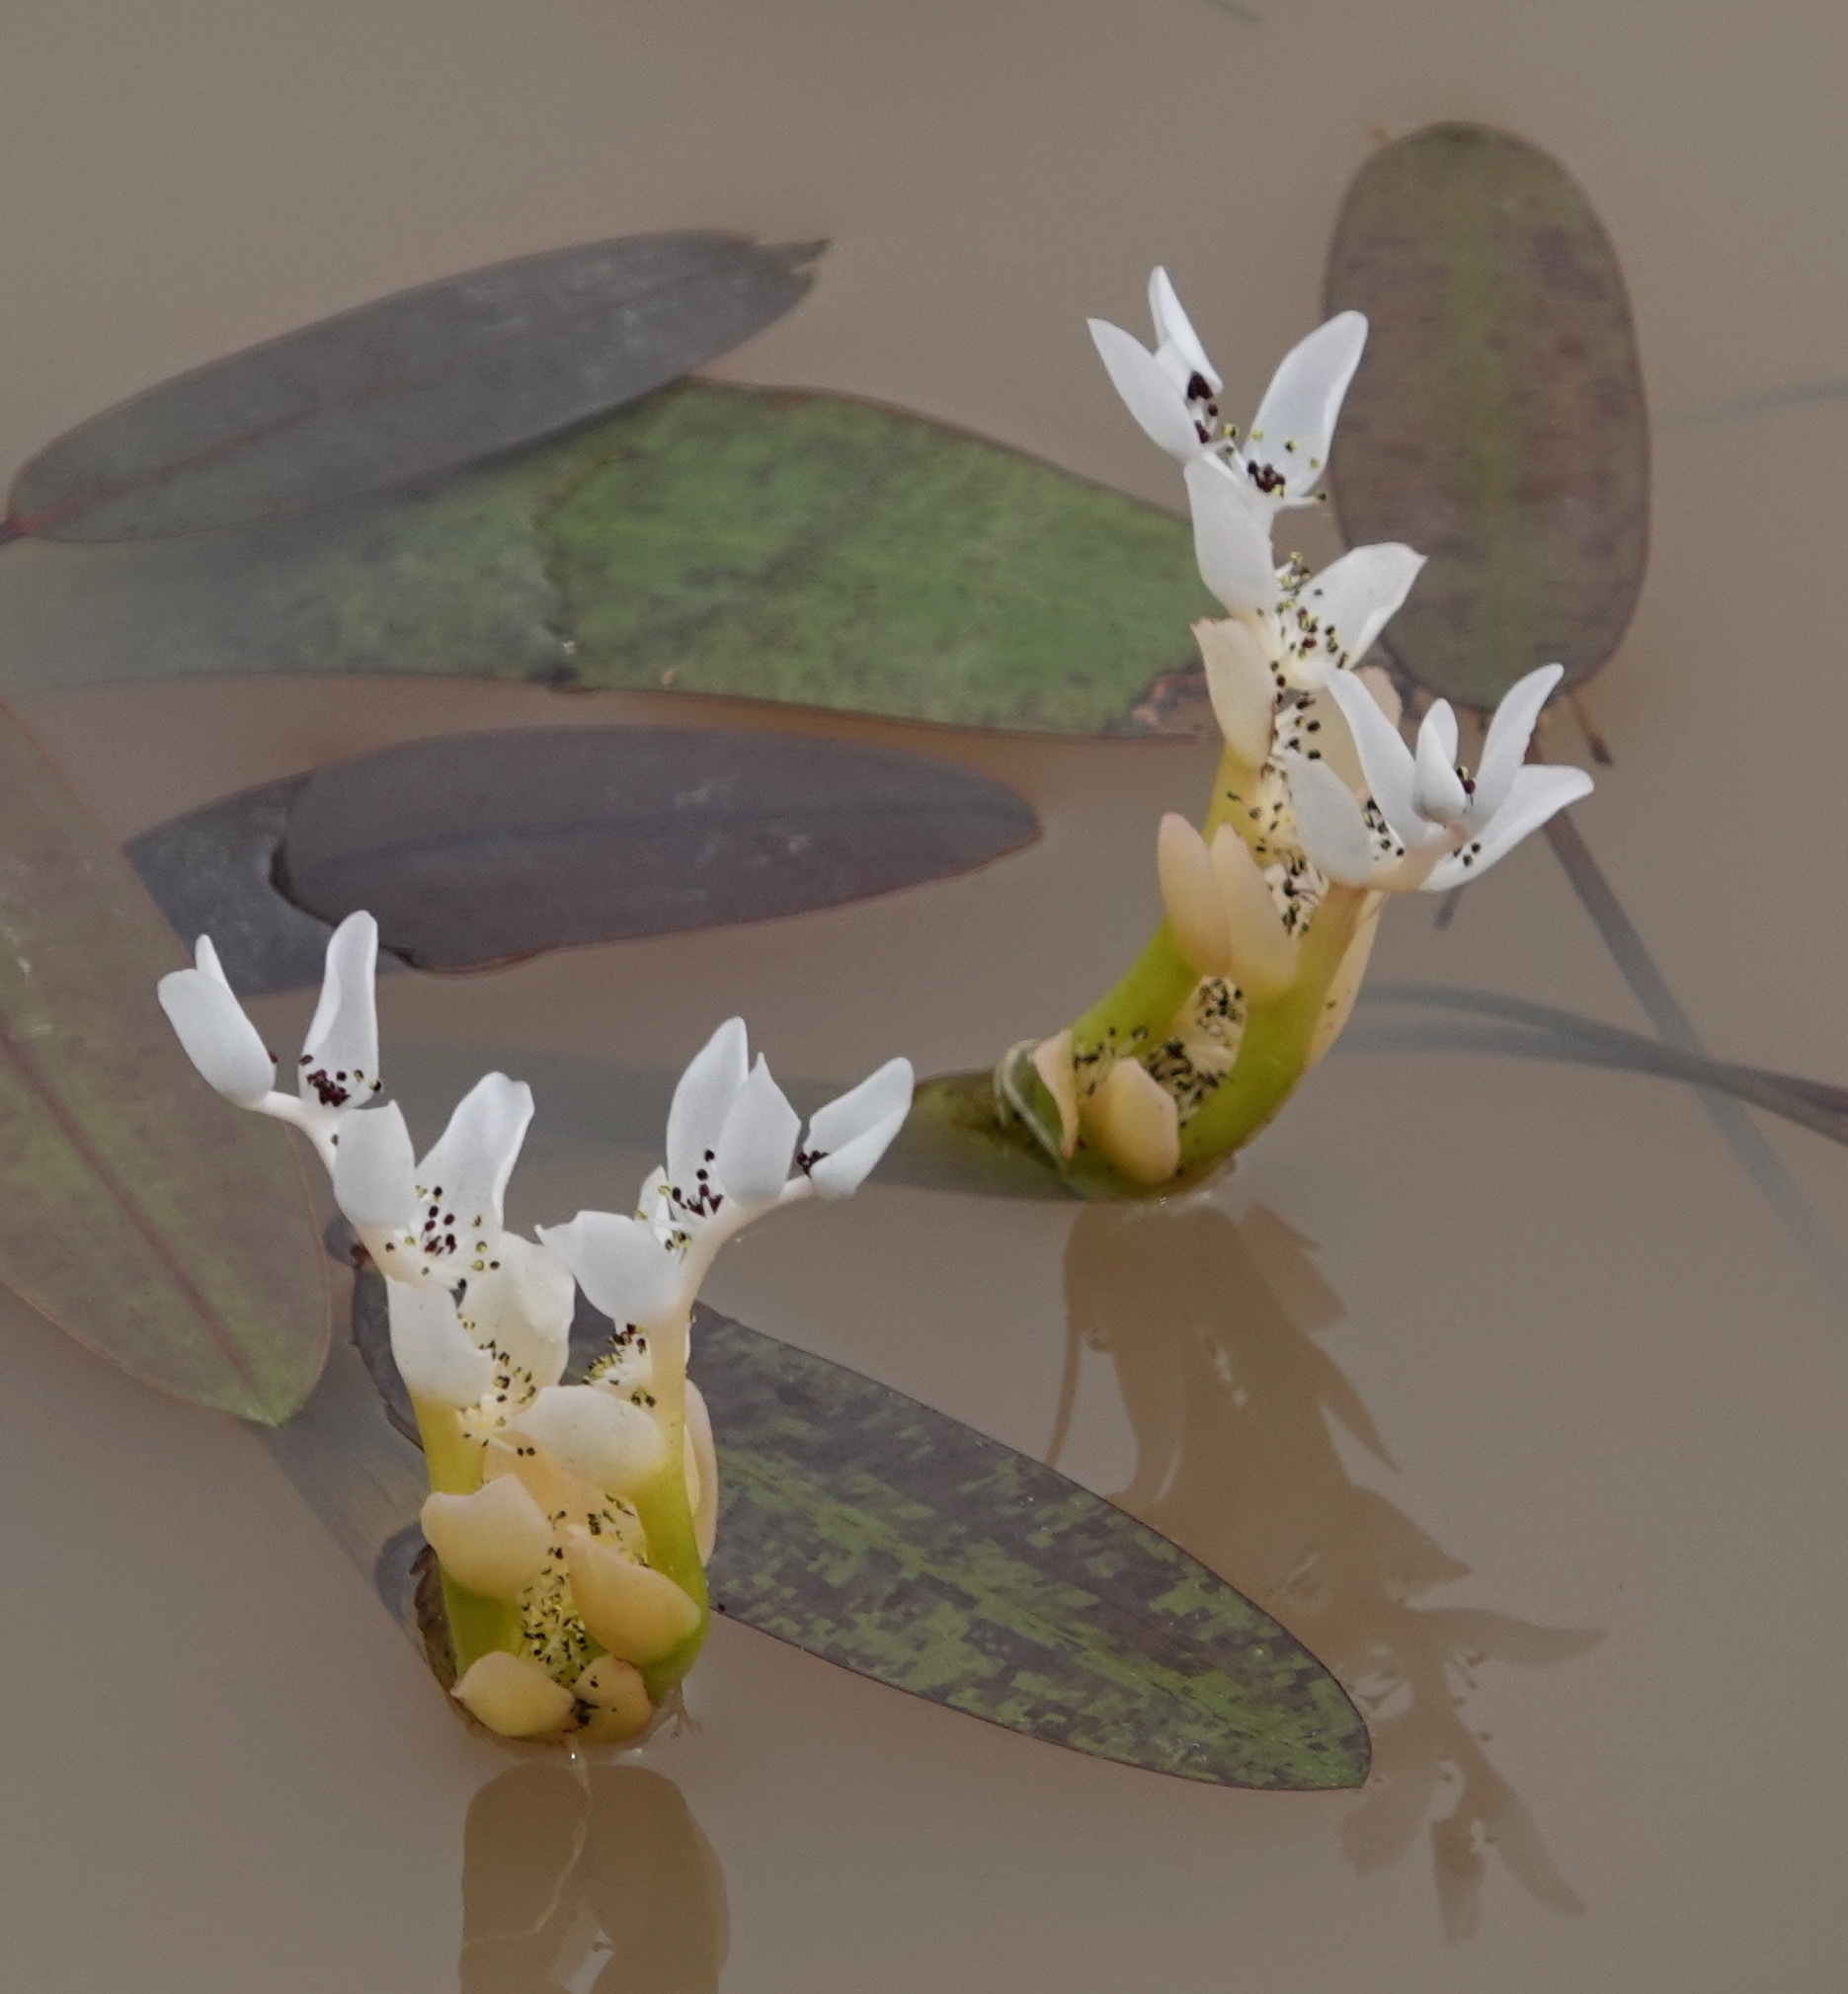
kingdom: Plantae
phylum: Tracheophyta
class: Liliopsida
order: Alismatales
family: Aponogetonaceae
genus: Aponogeton
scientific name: Aponogeton distachyos
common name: Cape-pondweed
